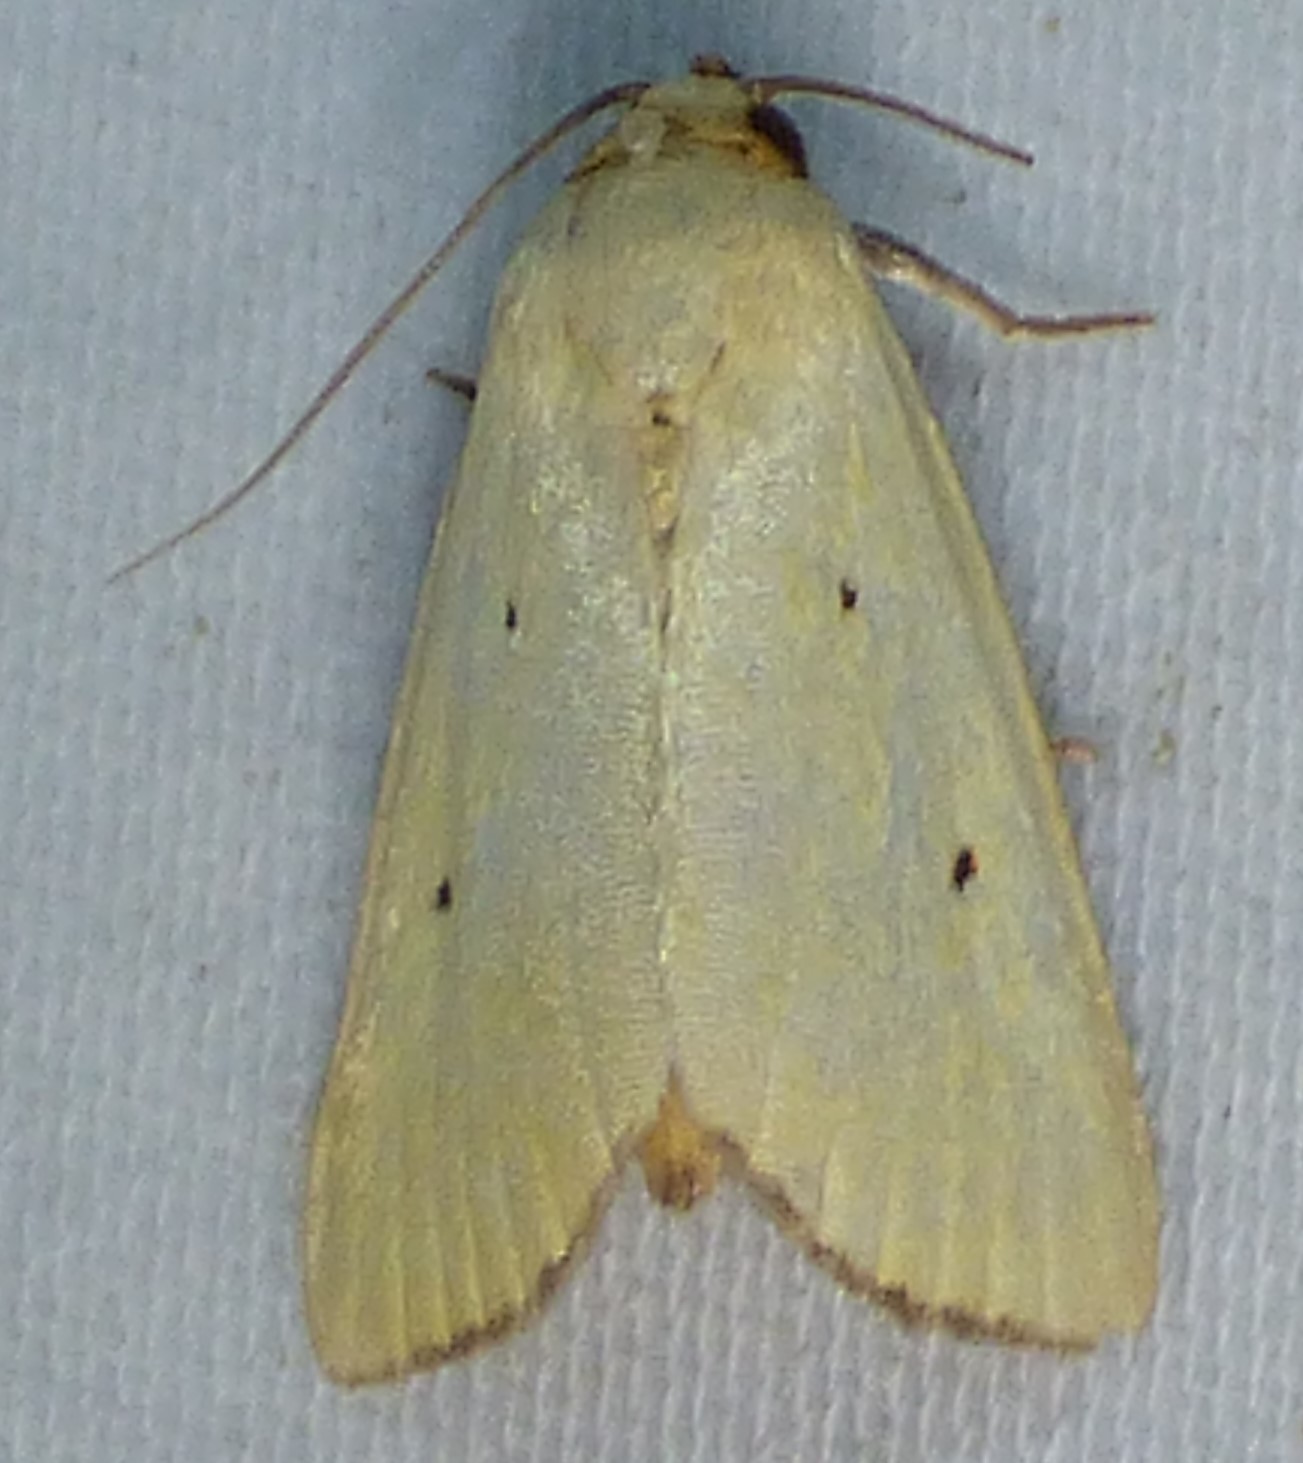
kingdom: Animalia
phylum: Arthropoda
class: Insecta
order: Lepidoptera
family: Noctuidae
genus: Marimatha
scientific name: Marimatha nigrofimbria
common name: Black-bordered lemon moth
